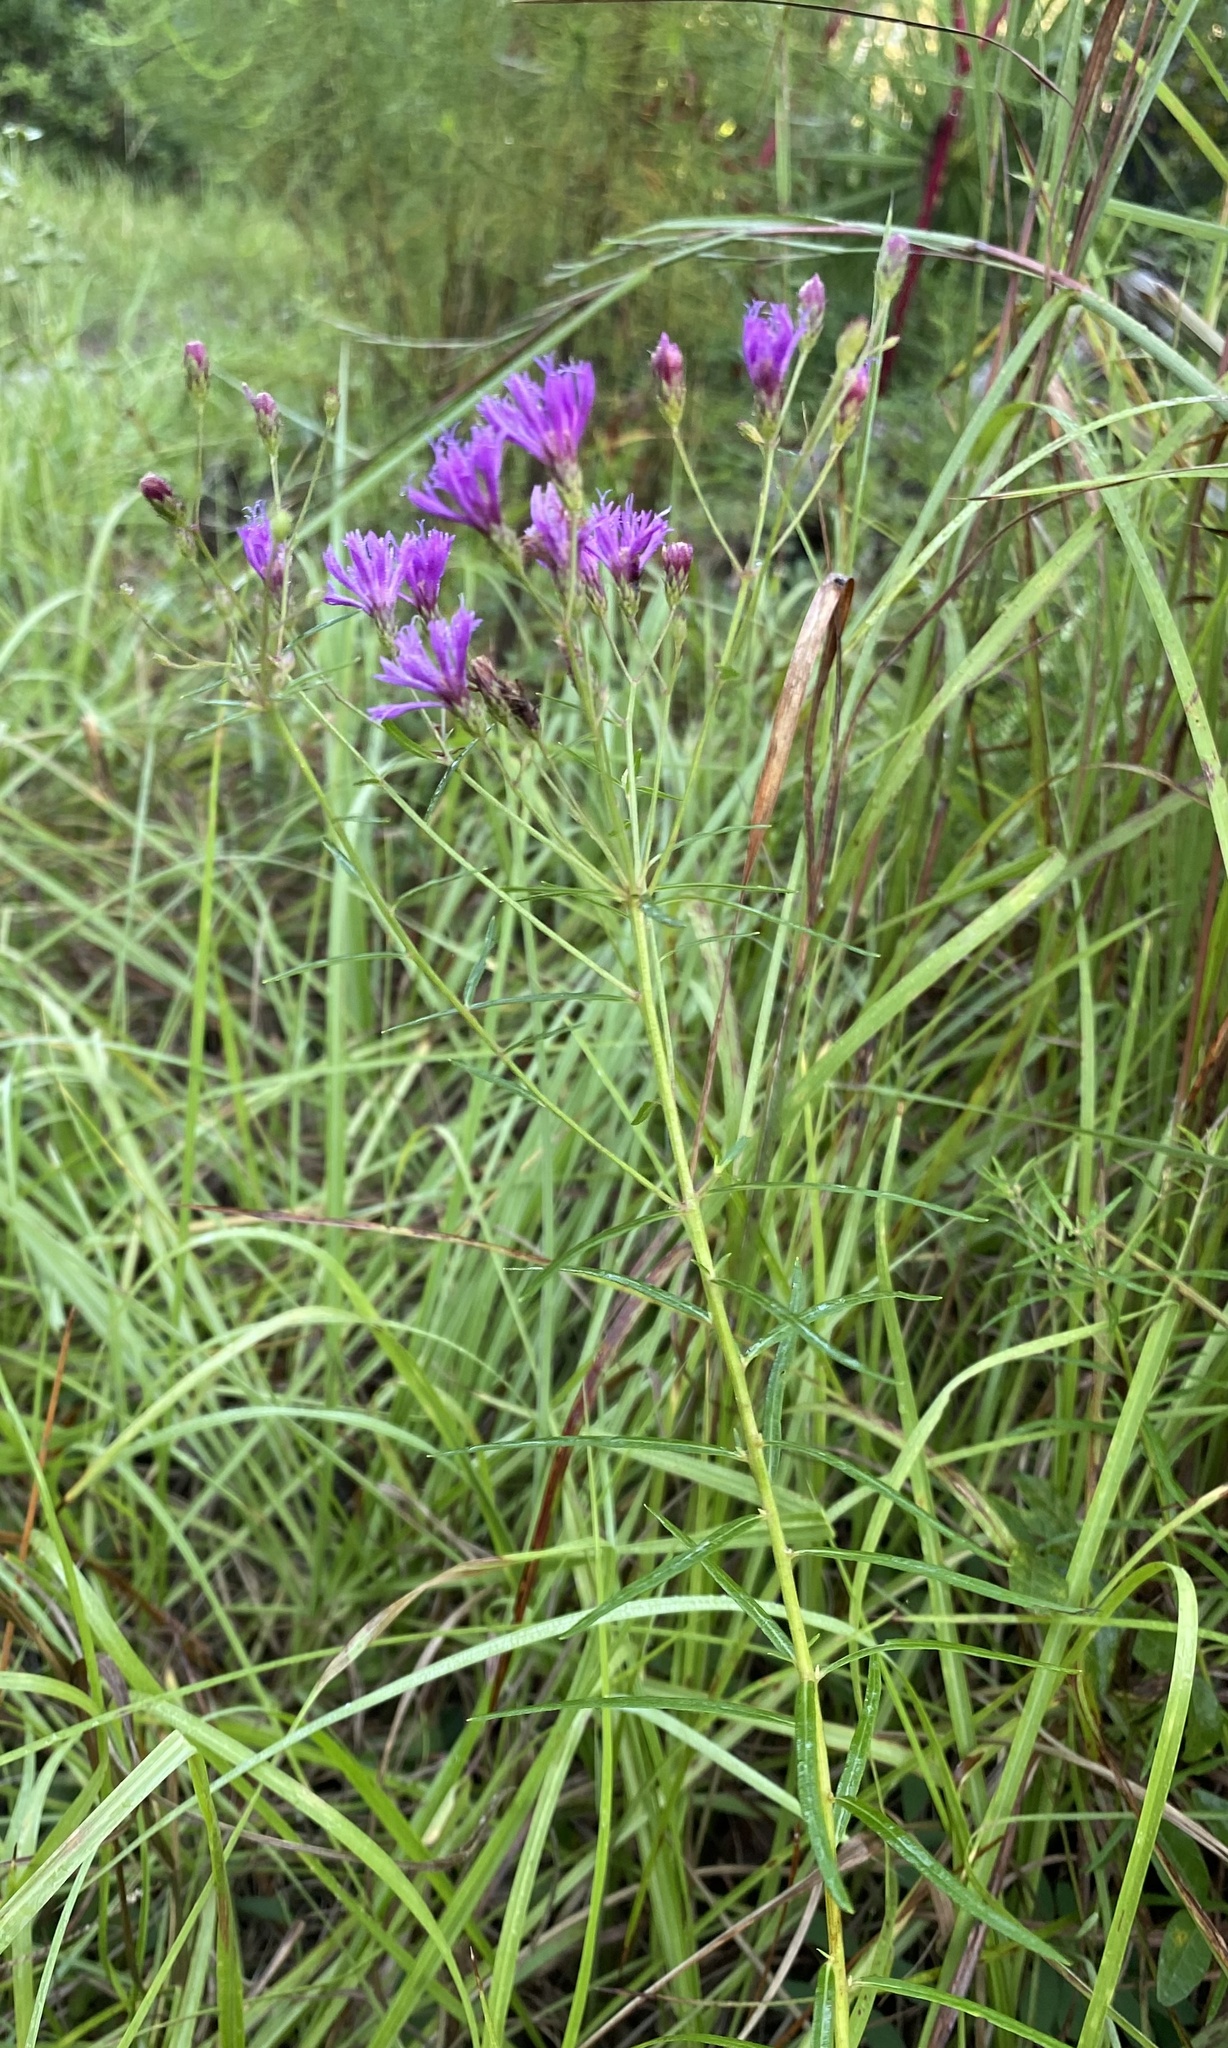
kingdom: Plantae
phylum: Tracheophyta
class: Magnoliopsida
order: Asterales
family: Asteraceae
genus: Vernonia
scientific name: Vernonia angustifolia
